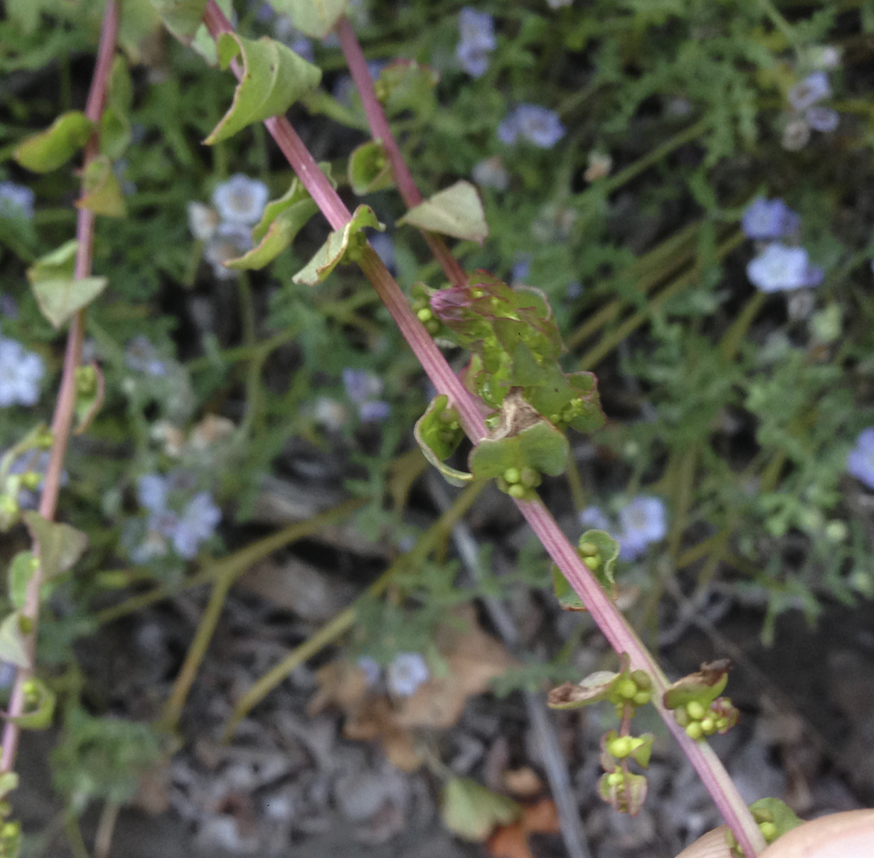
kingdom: Plantae
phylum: Tracheophyta
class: Magnoliopsida
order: Caryophyllales
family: Amaranthaceae
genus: Aphanisma
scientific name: Aphanisma blitoides
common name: Aphanisma
